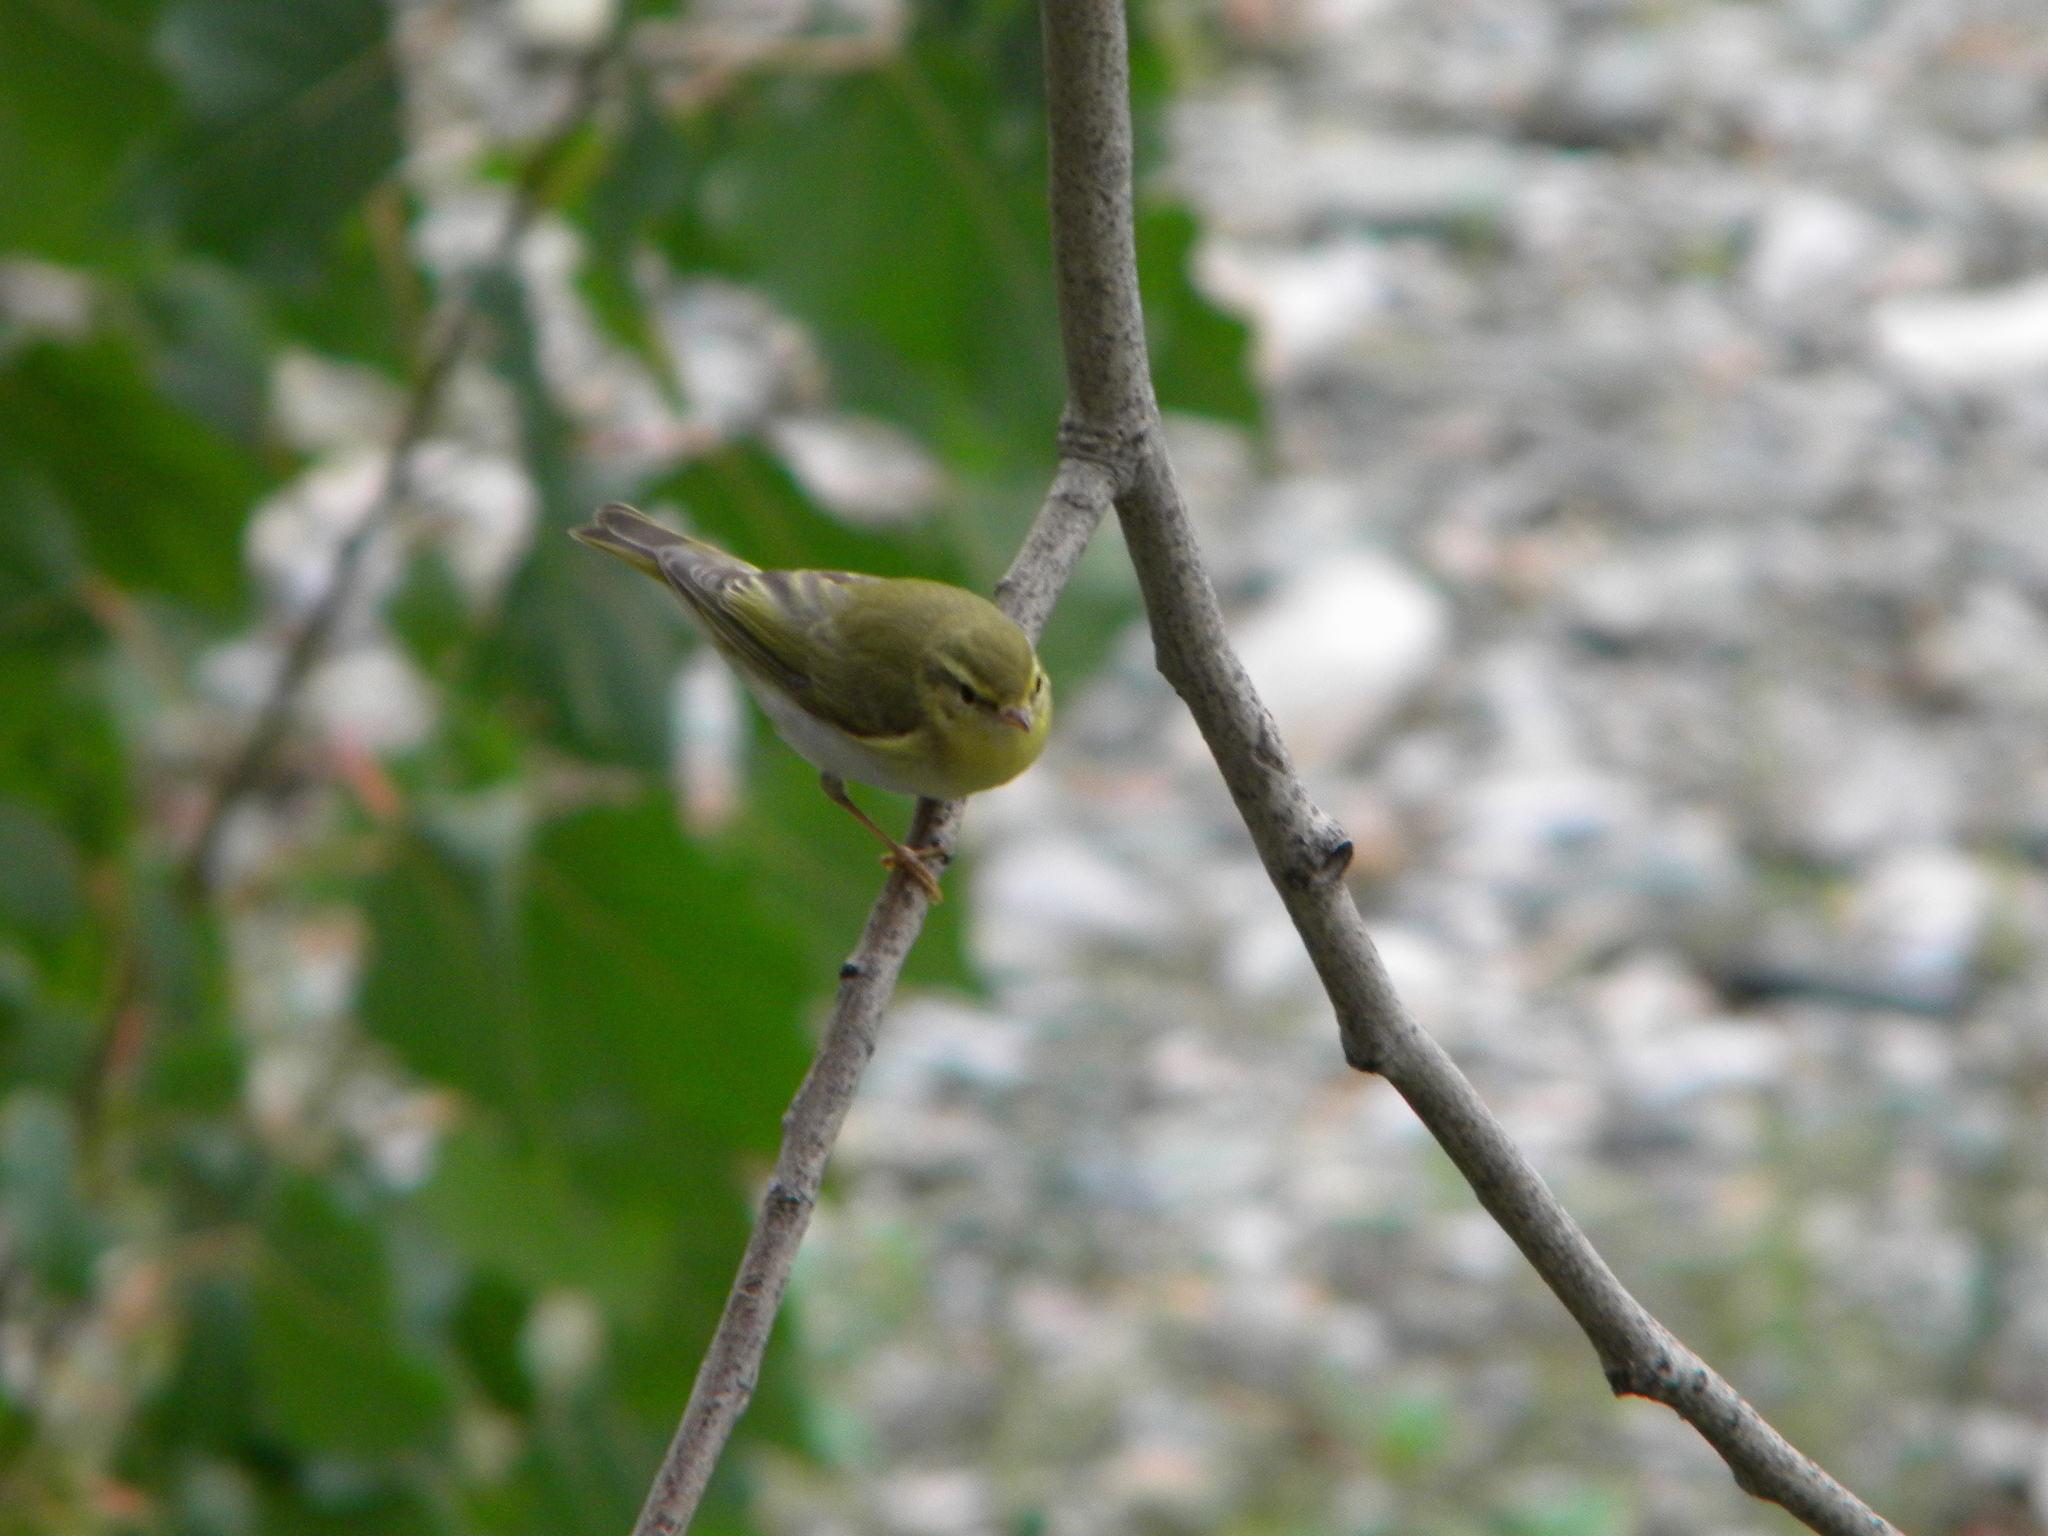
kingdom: Animalia
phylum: Chordata
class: Aves
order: Passeriformes
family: Phylloscopidae
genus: Phylloscopus
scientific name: Phylloscopus sibillatrix
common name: Wood warbler
